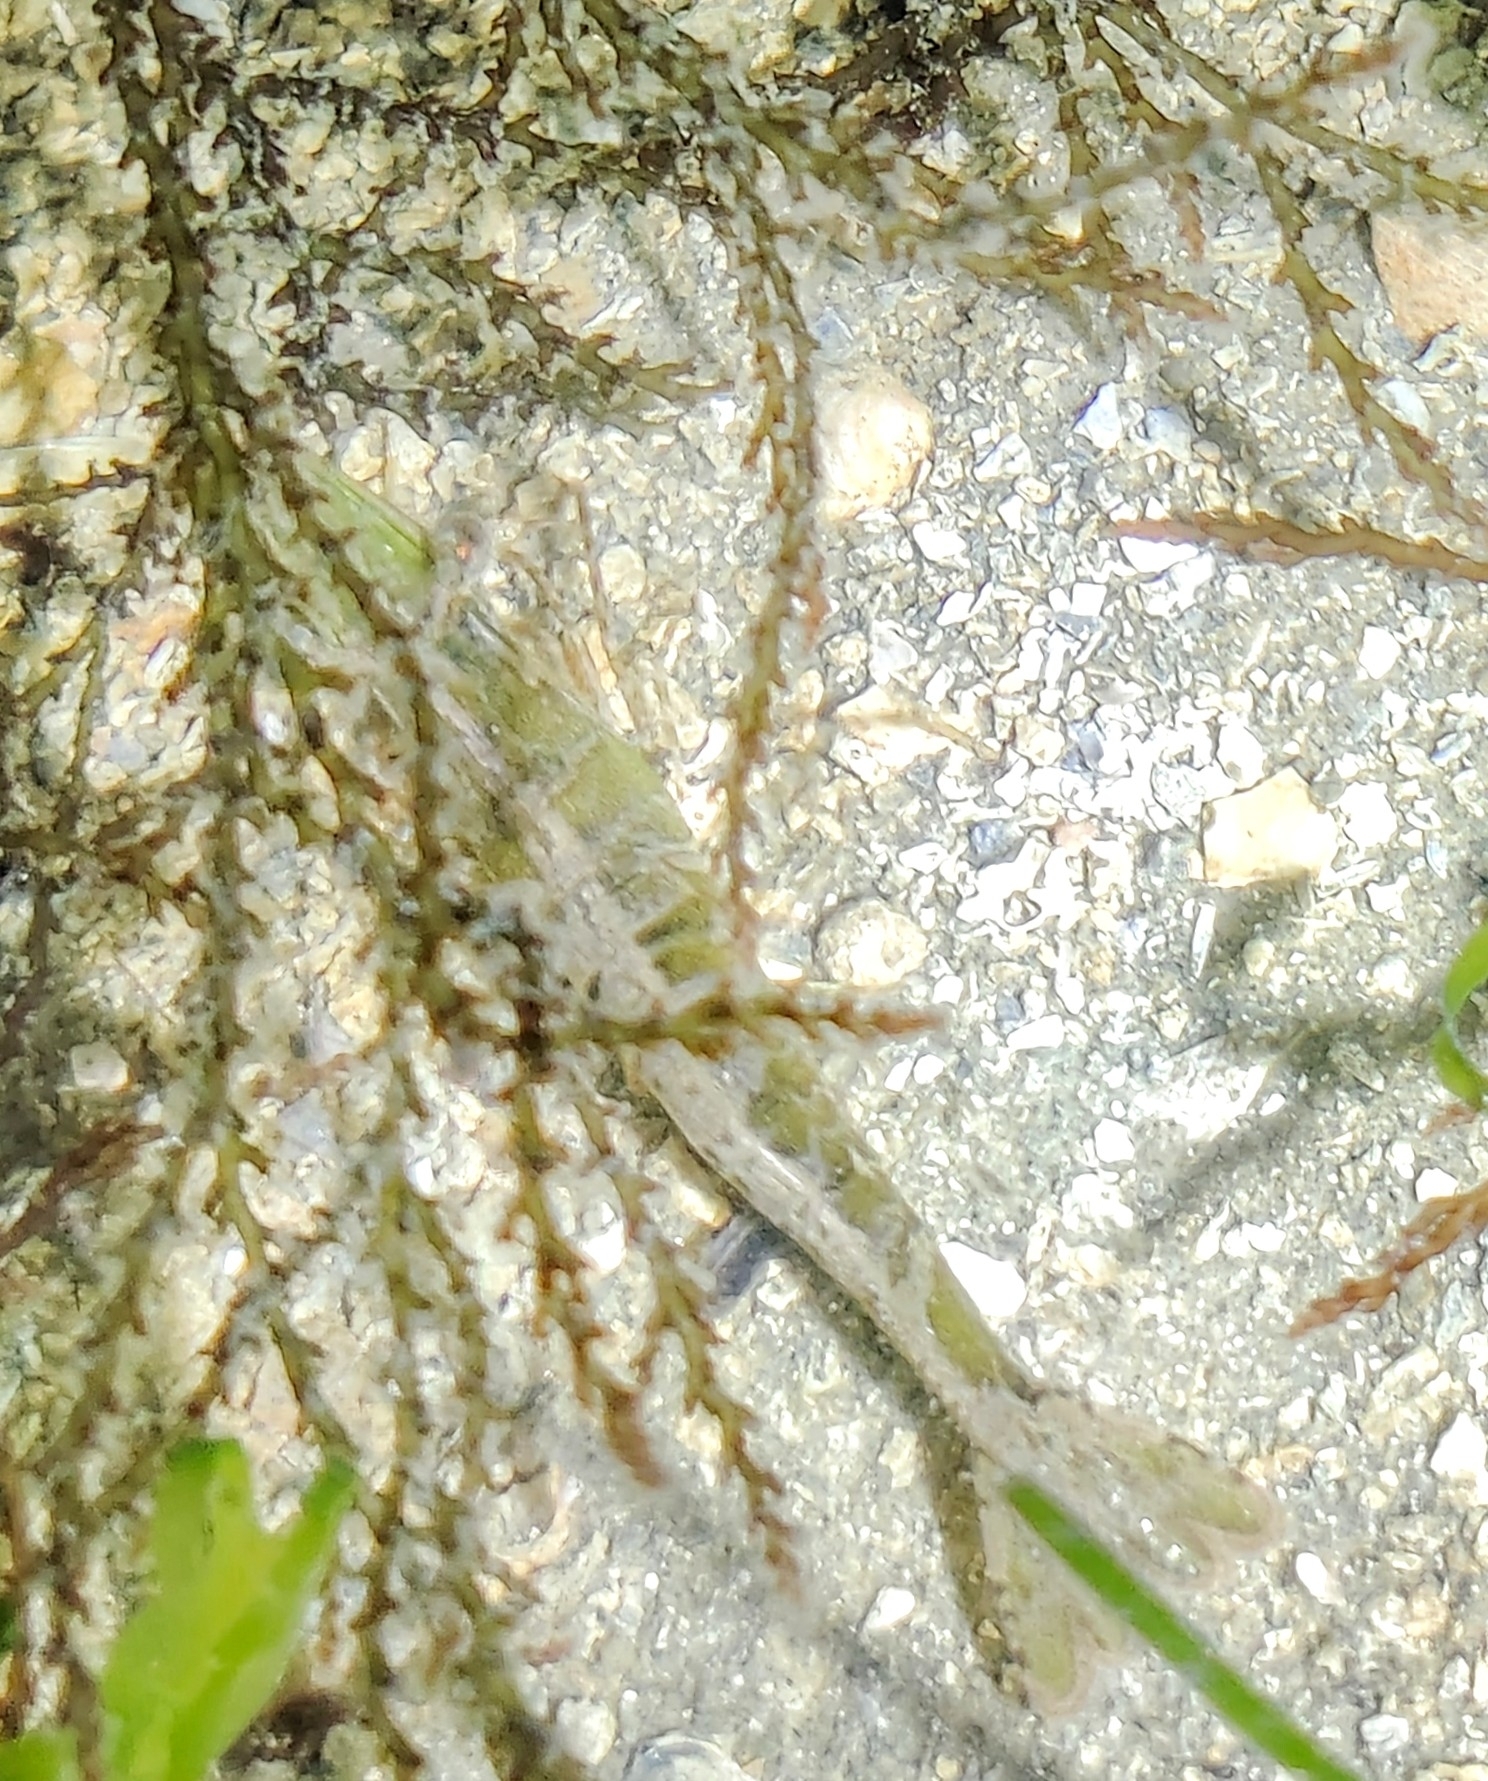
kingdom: Animalia
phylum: Arthropoda
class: Malacostraca
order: Decapoda
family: Penaeidae
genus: Penaeus
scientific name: Penaeus monodon
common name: Giant tiger prawn
